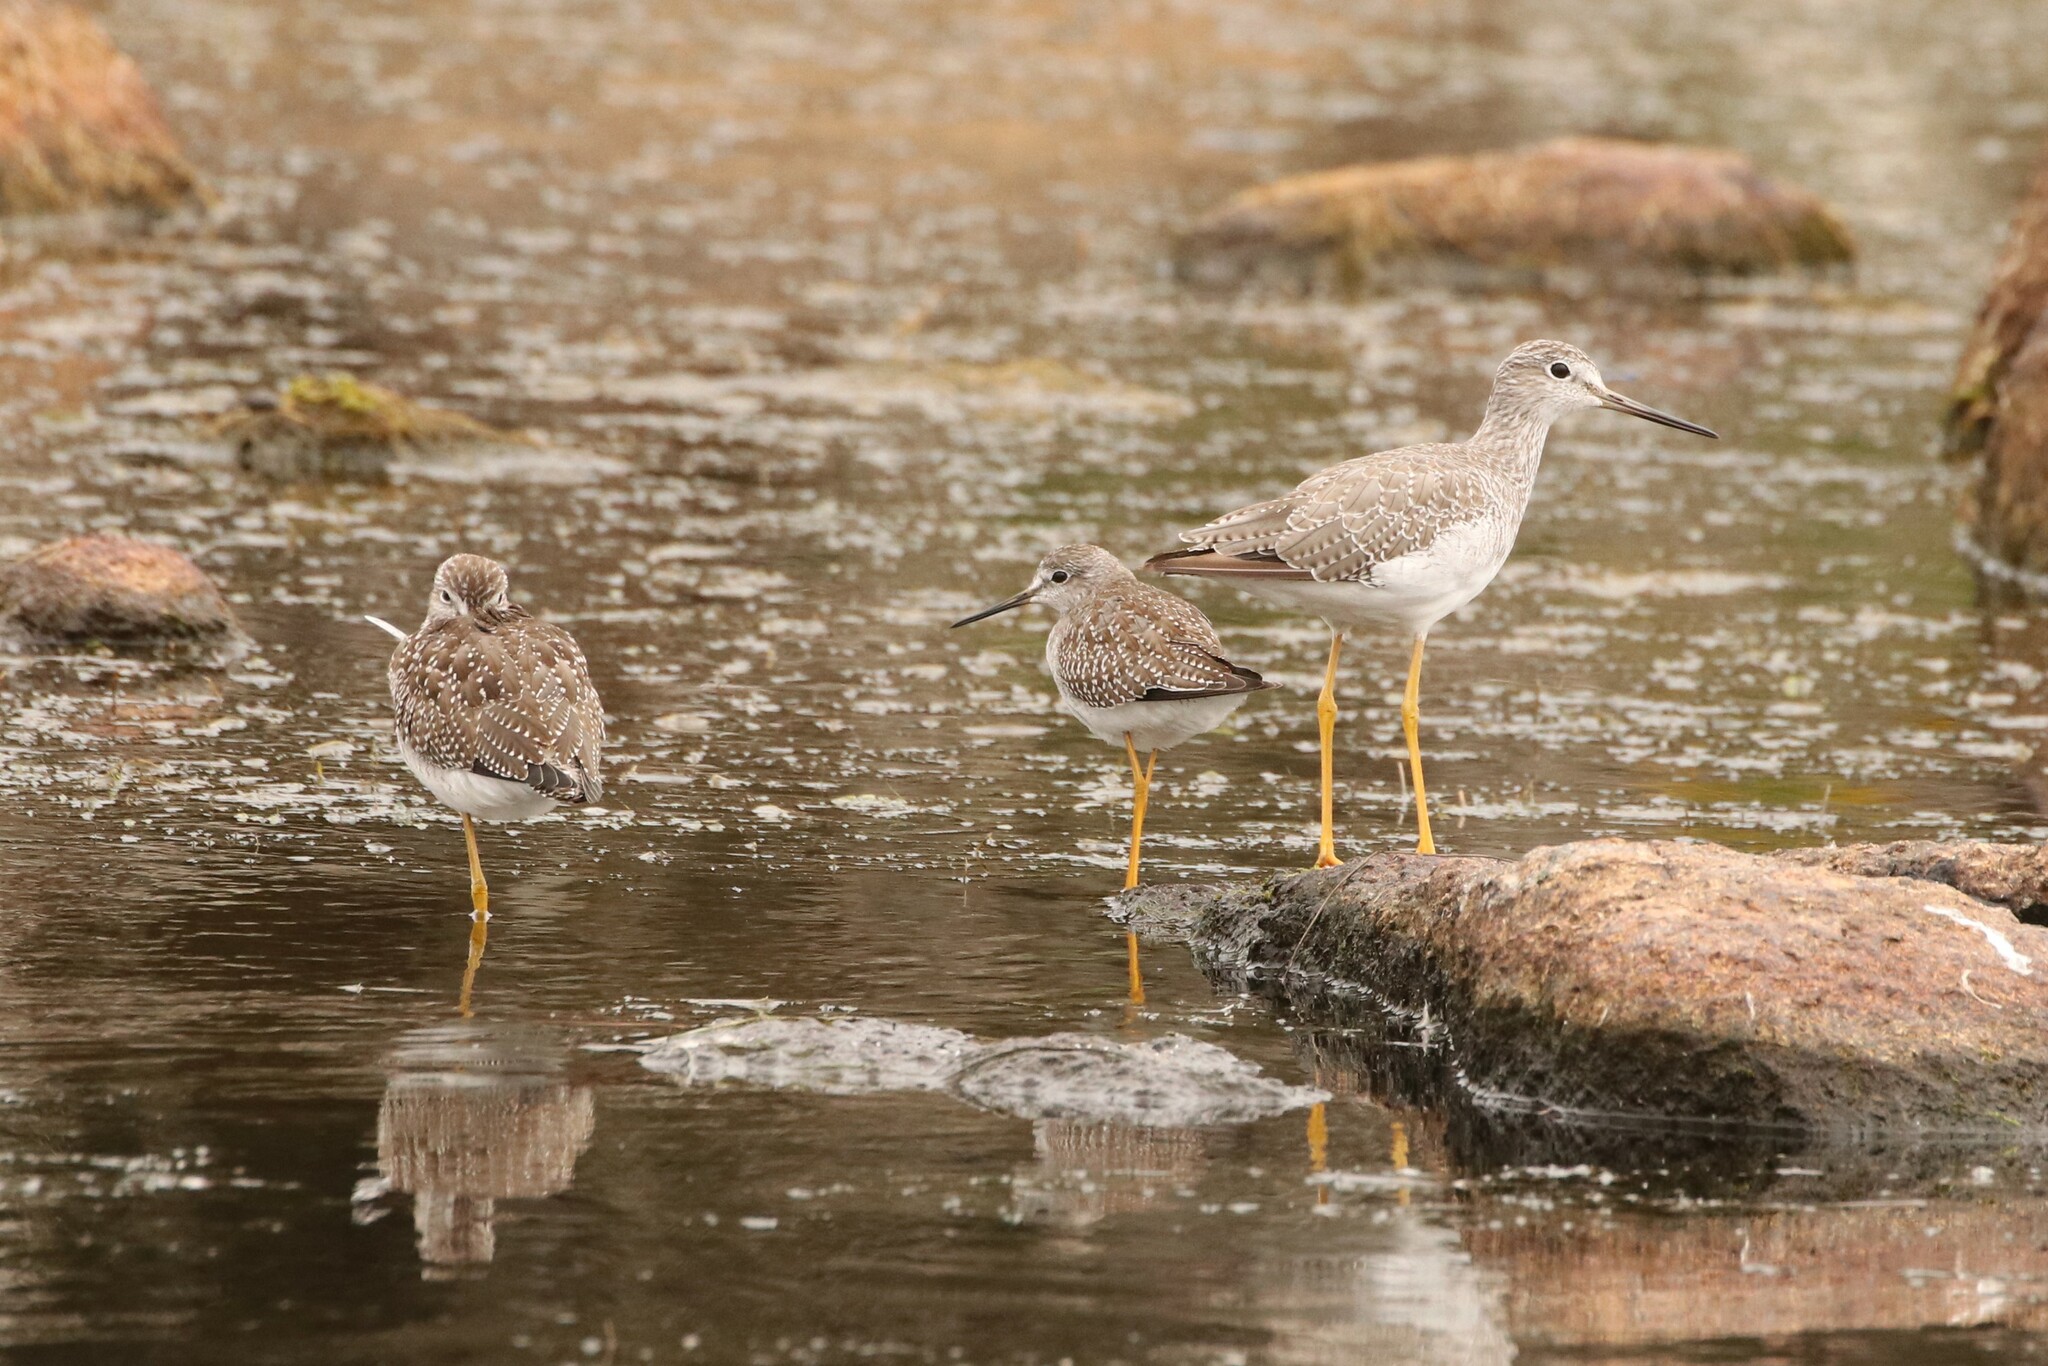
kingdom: Animalia
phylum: Chordata
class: Aves
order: Charadriiformes
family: Scolopacidae
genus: Tringa
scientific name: Tringa melanoleuca
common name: Greater yellowlegs
